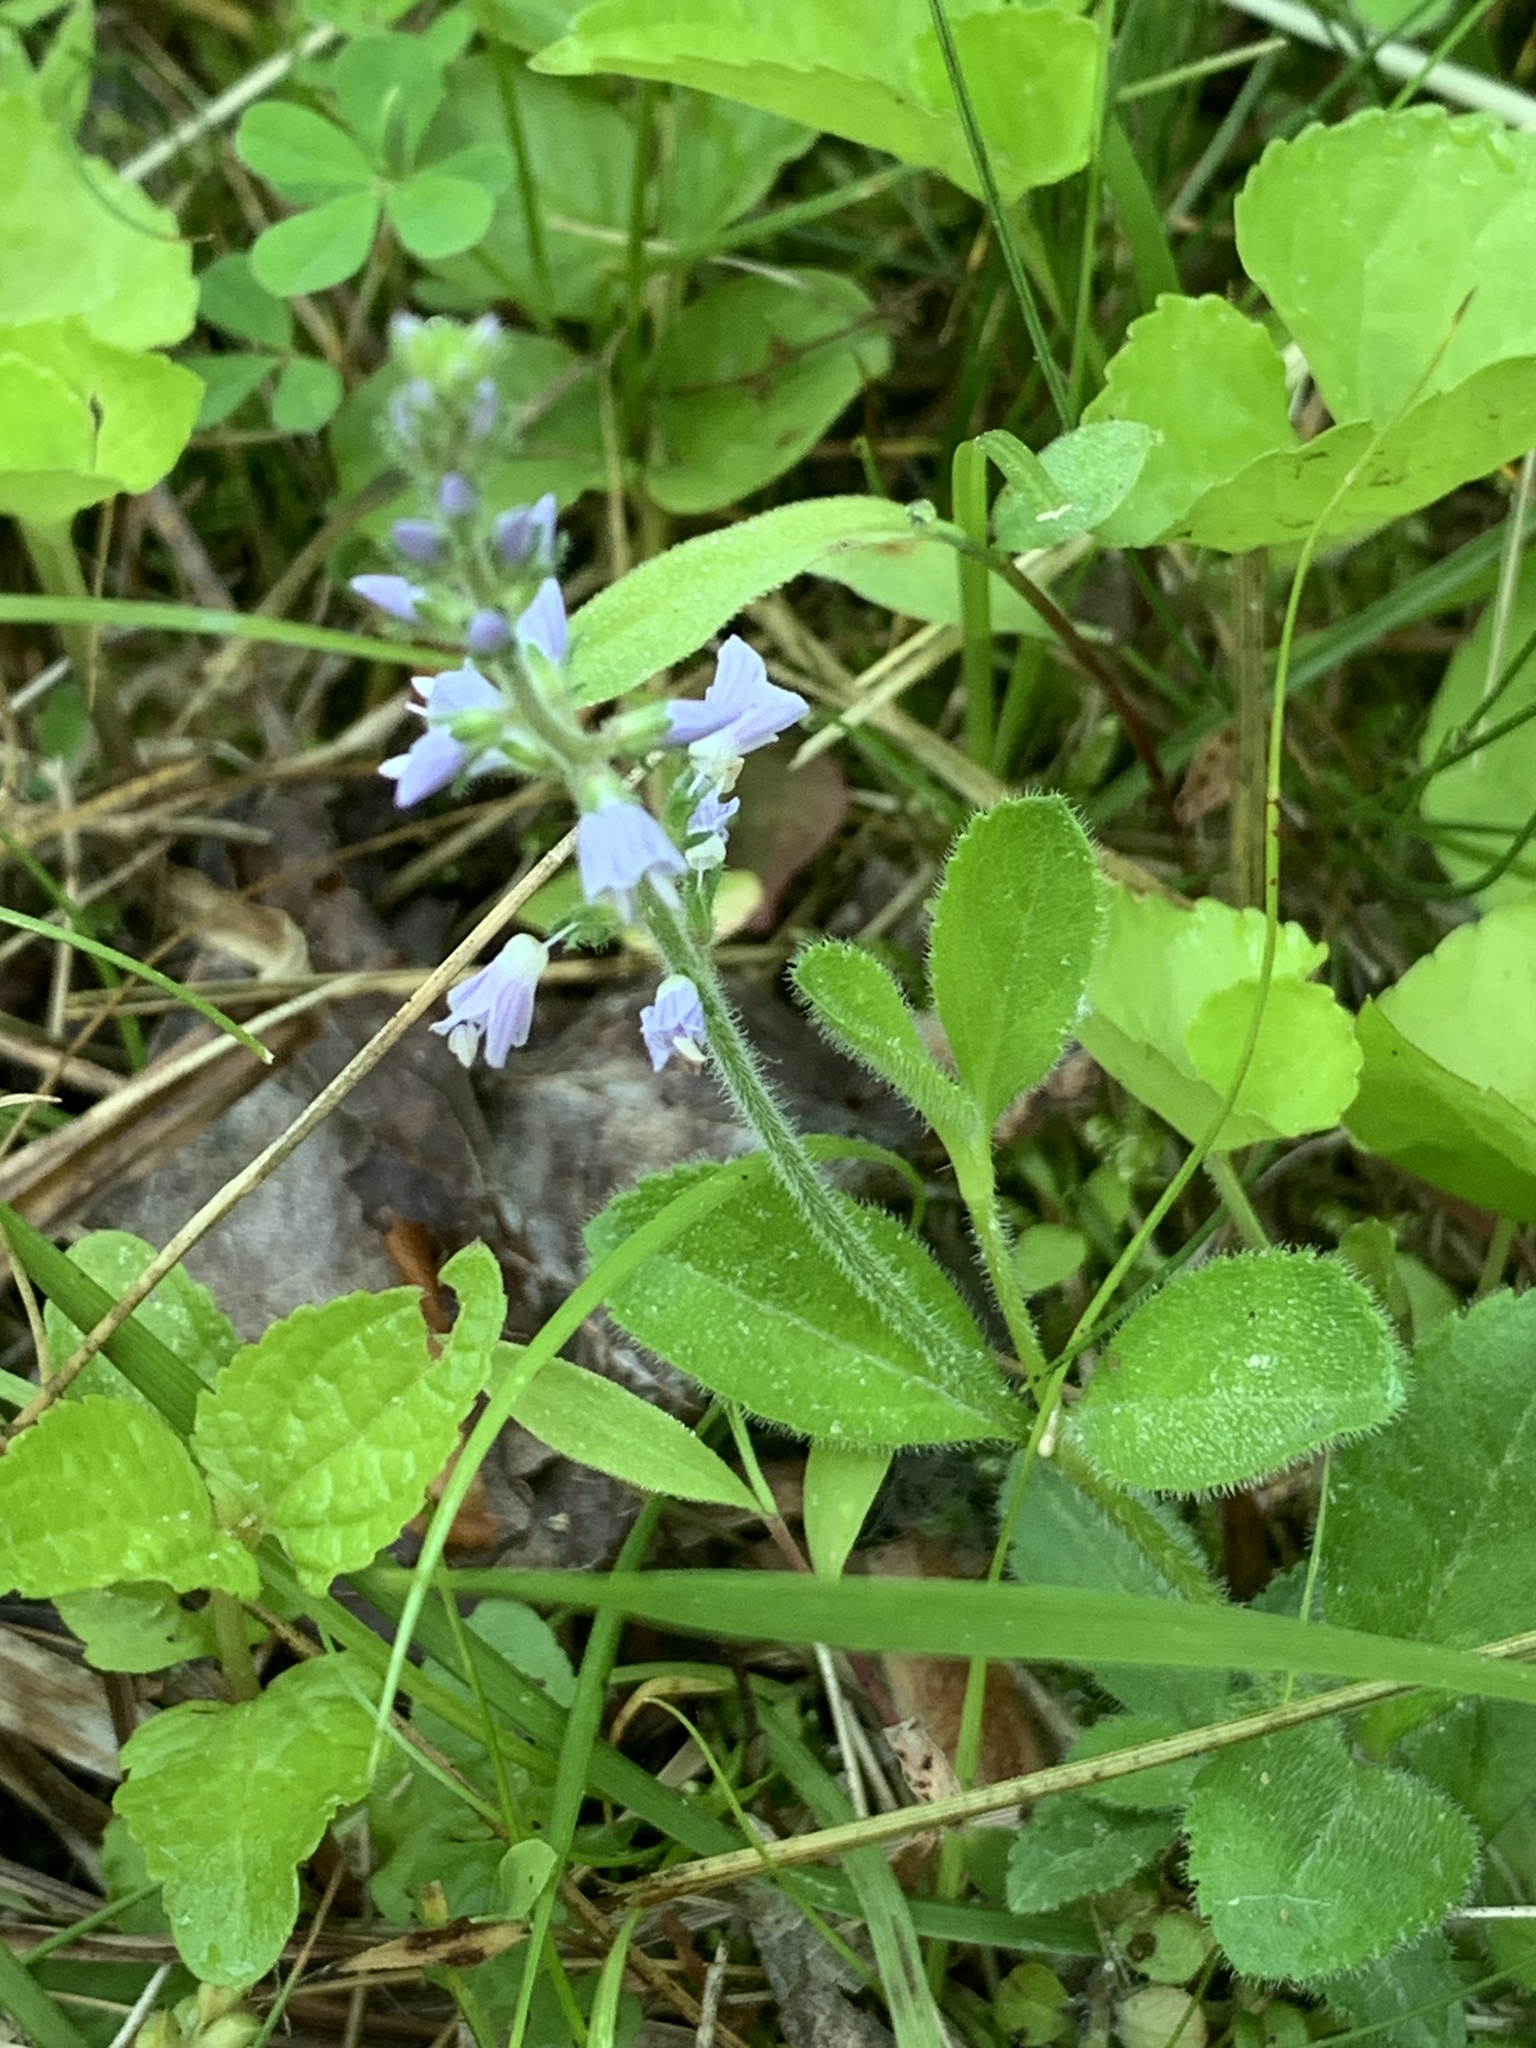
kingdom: Plantae
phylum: Tracheophyta
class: Magnoliopsida
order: Lamiales
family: Plantaginaceae
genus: Veronica
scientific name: Veronica officinalis
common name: Common speedwell
